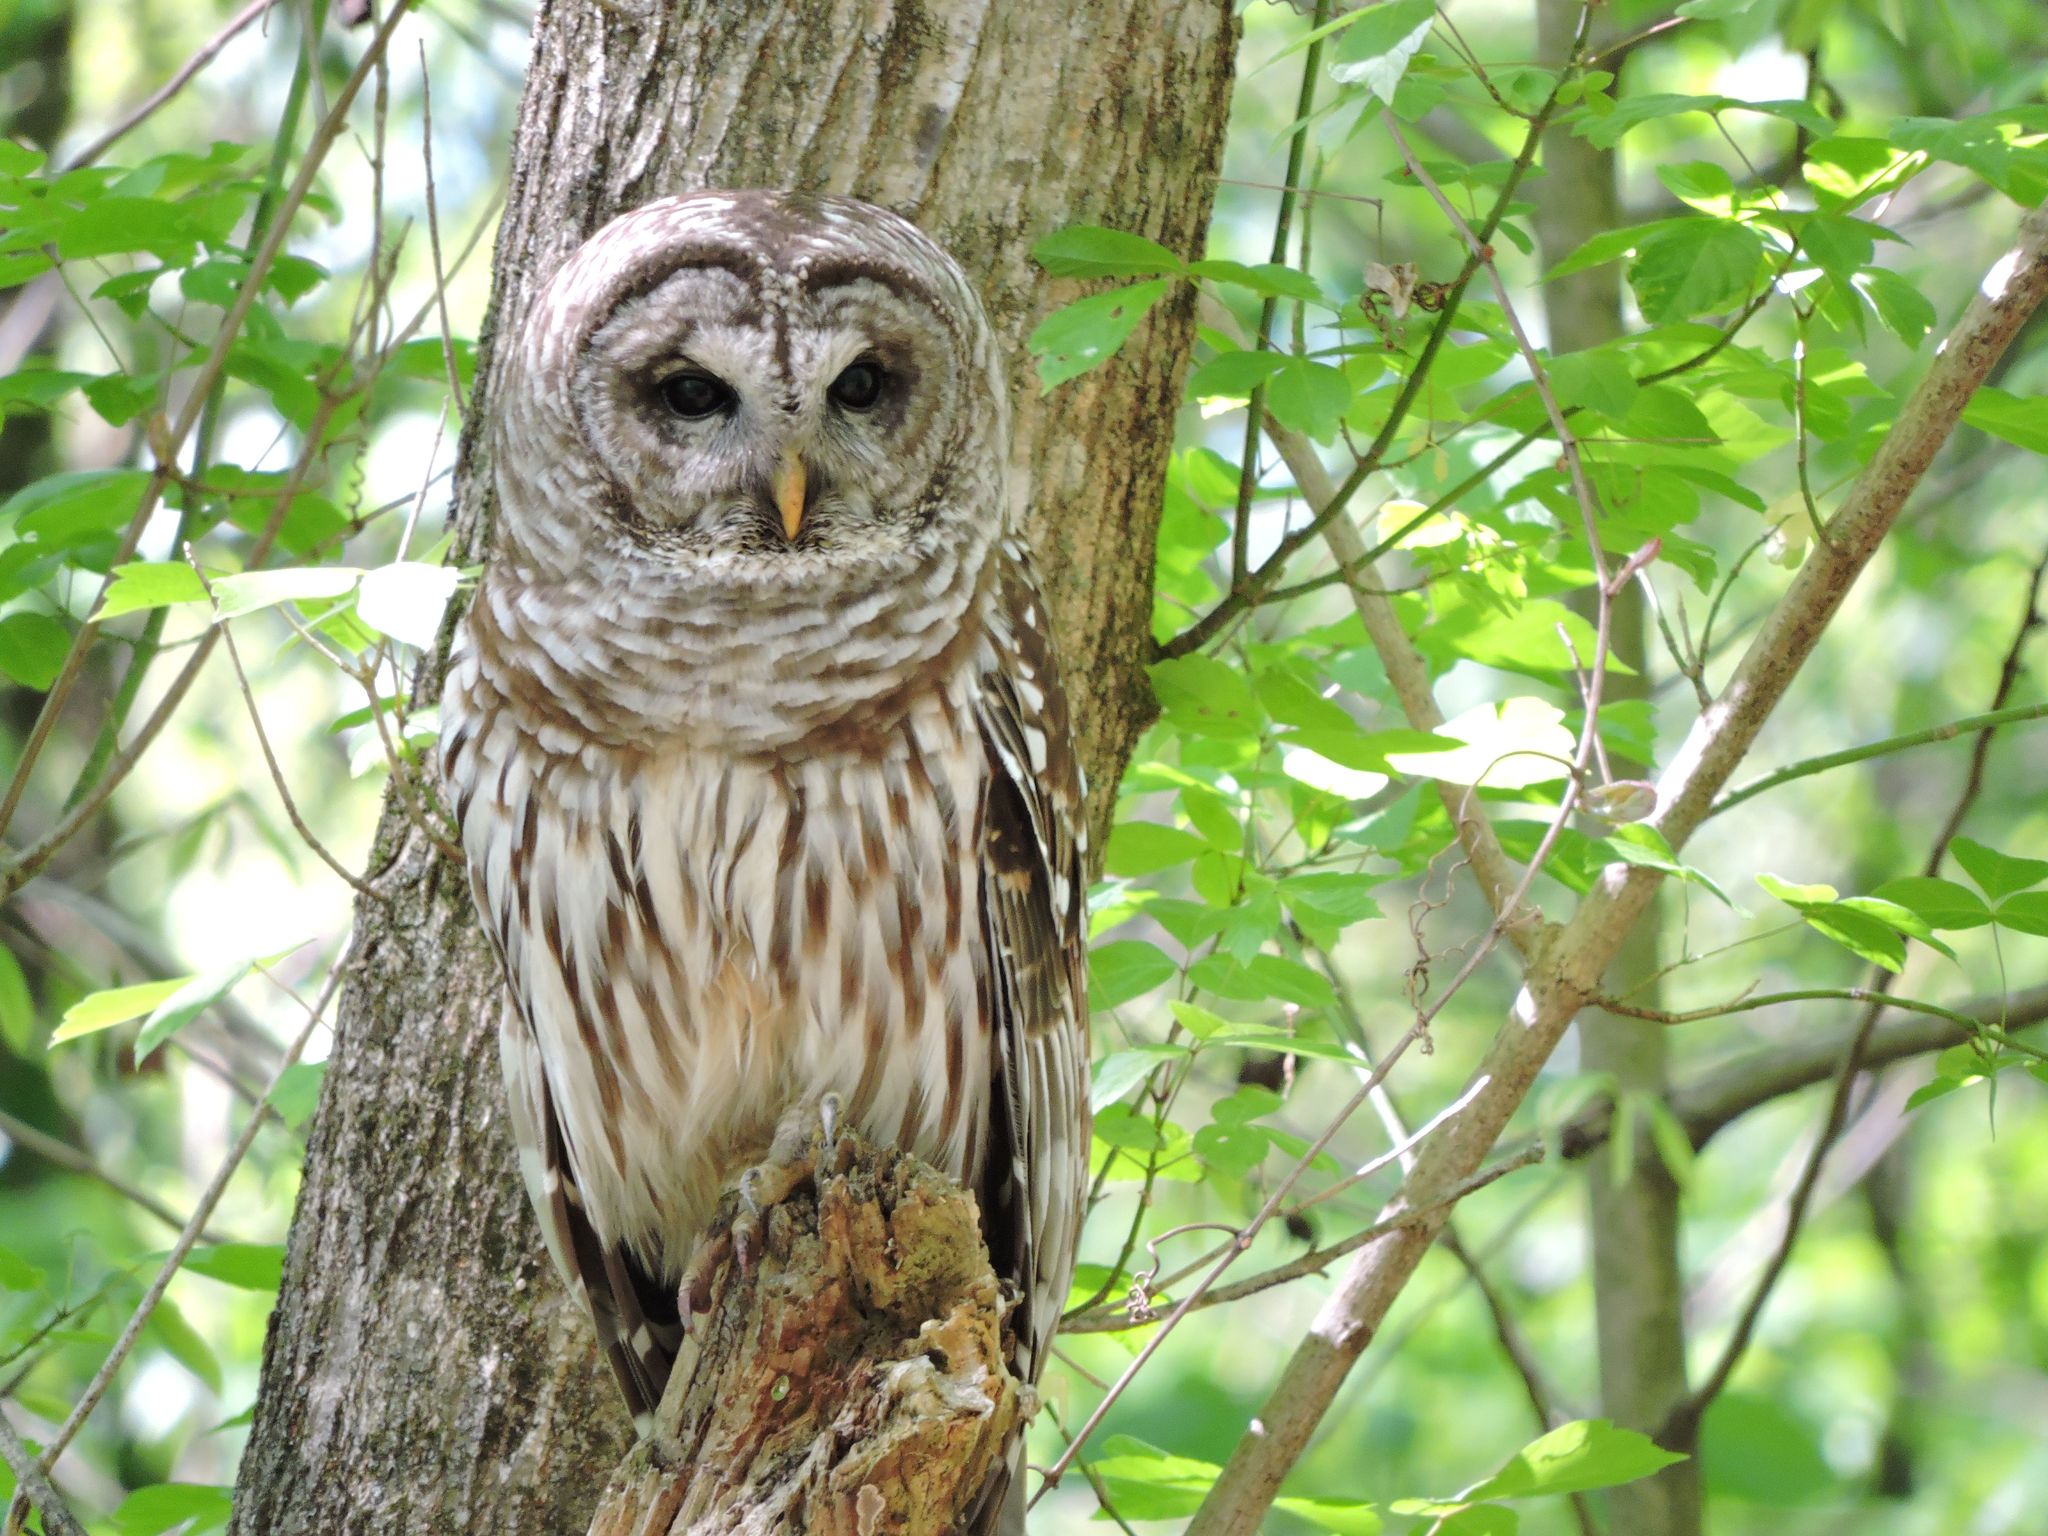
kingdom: Animalia
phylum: Chordata
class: Aves
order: Strigiformes
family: Strigidae
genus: Strix
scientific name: Strix varia
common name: Barred owl
